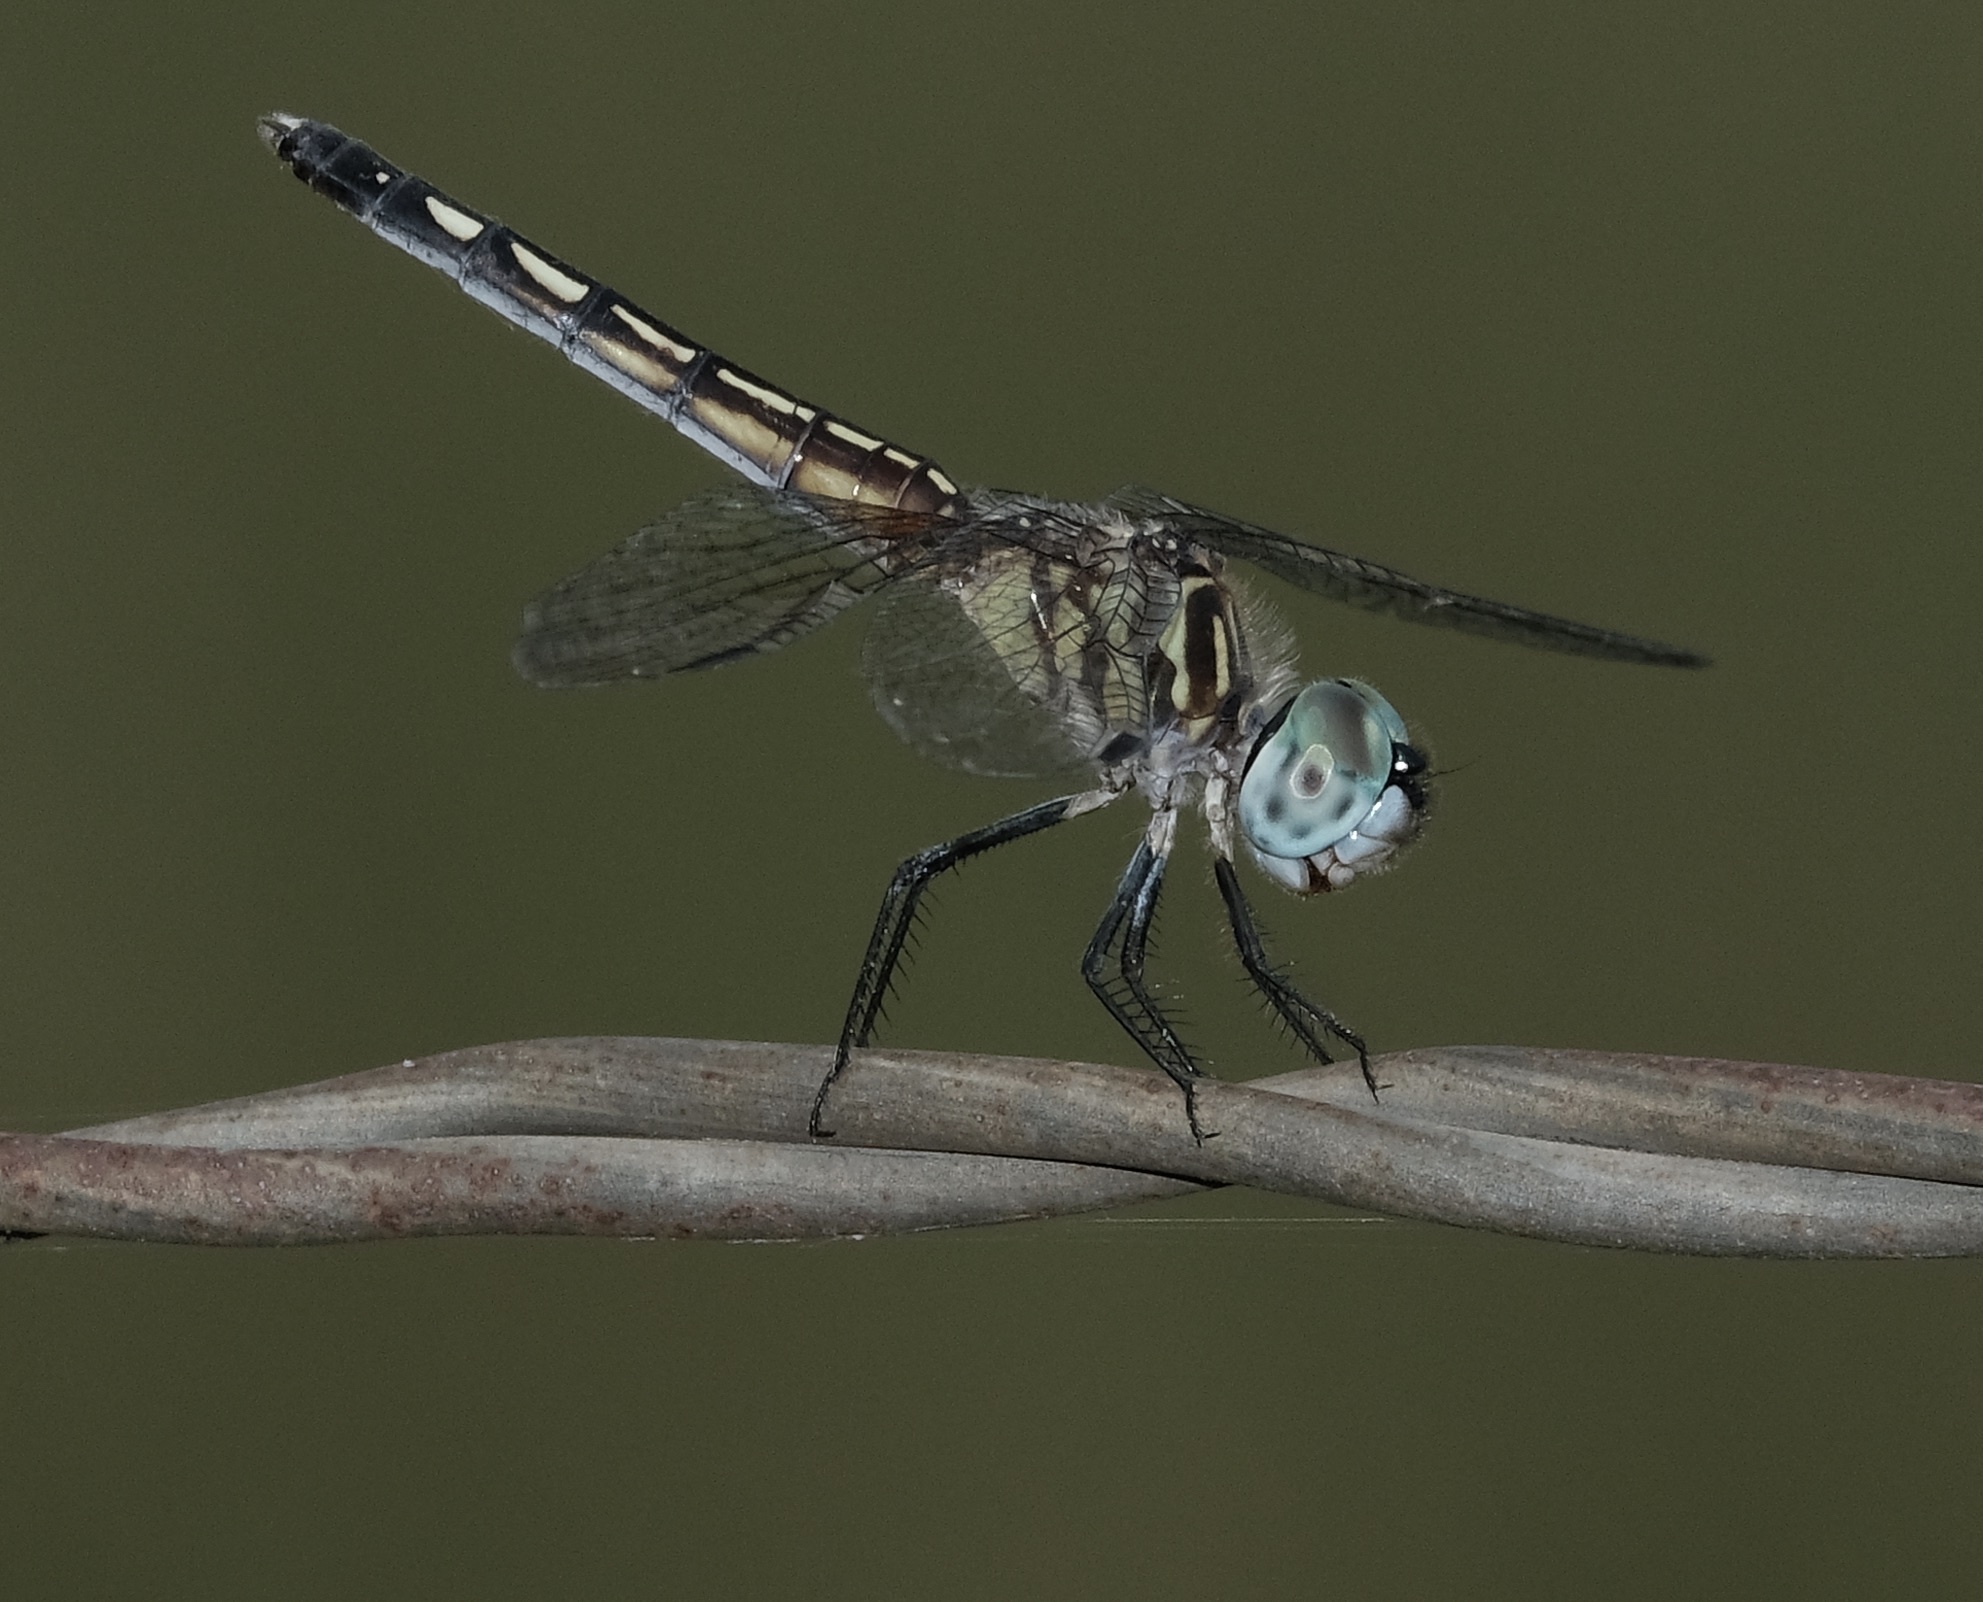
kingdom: Animalia
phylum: Arthropoda
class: Insecta
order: Odonata
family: Libellulidae
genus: Pachydiplax
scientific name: Pachydiplax longipennis
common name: Blue dasher
